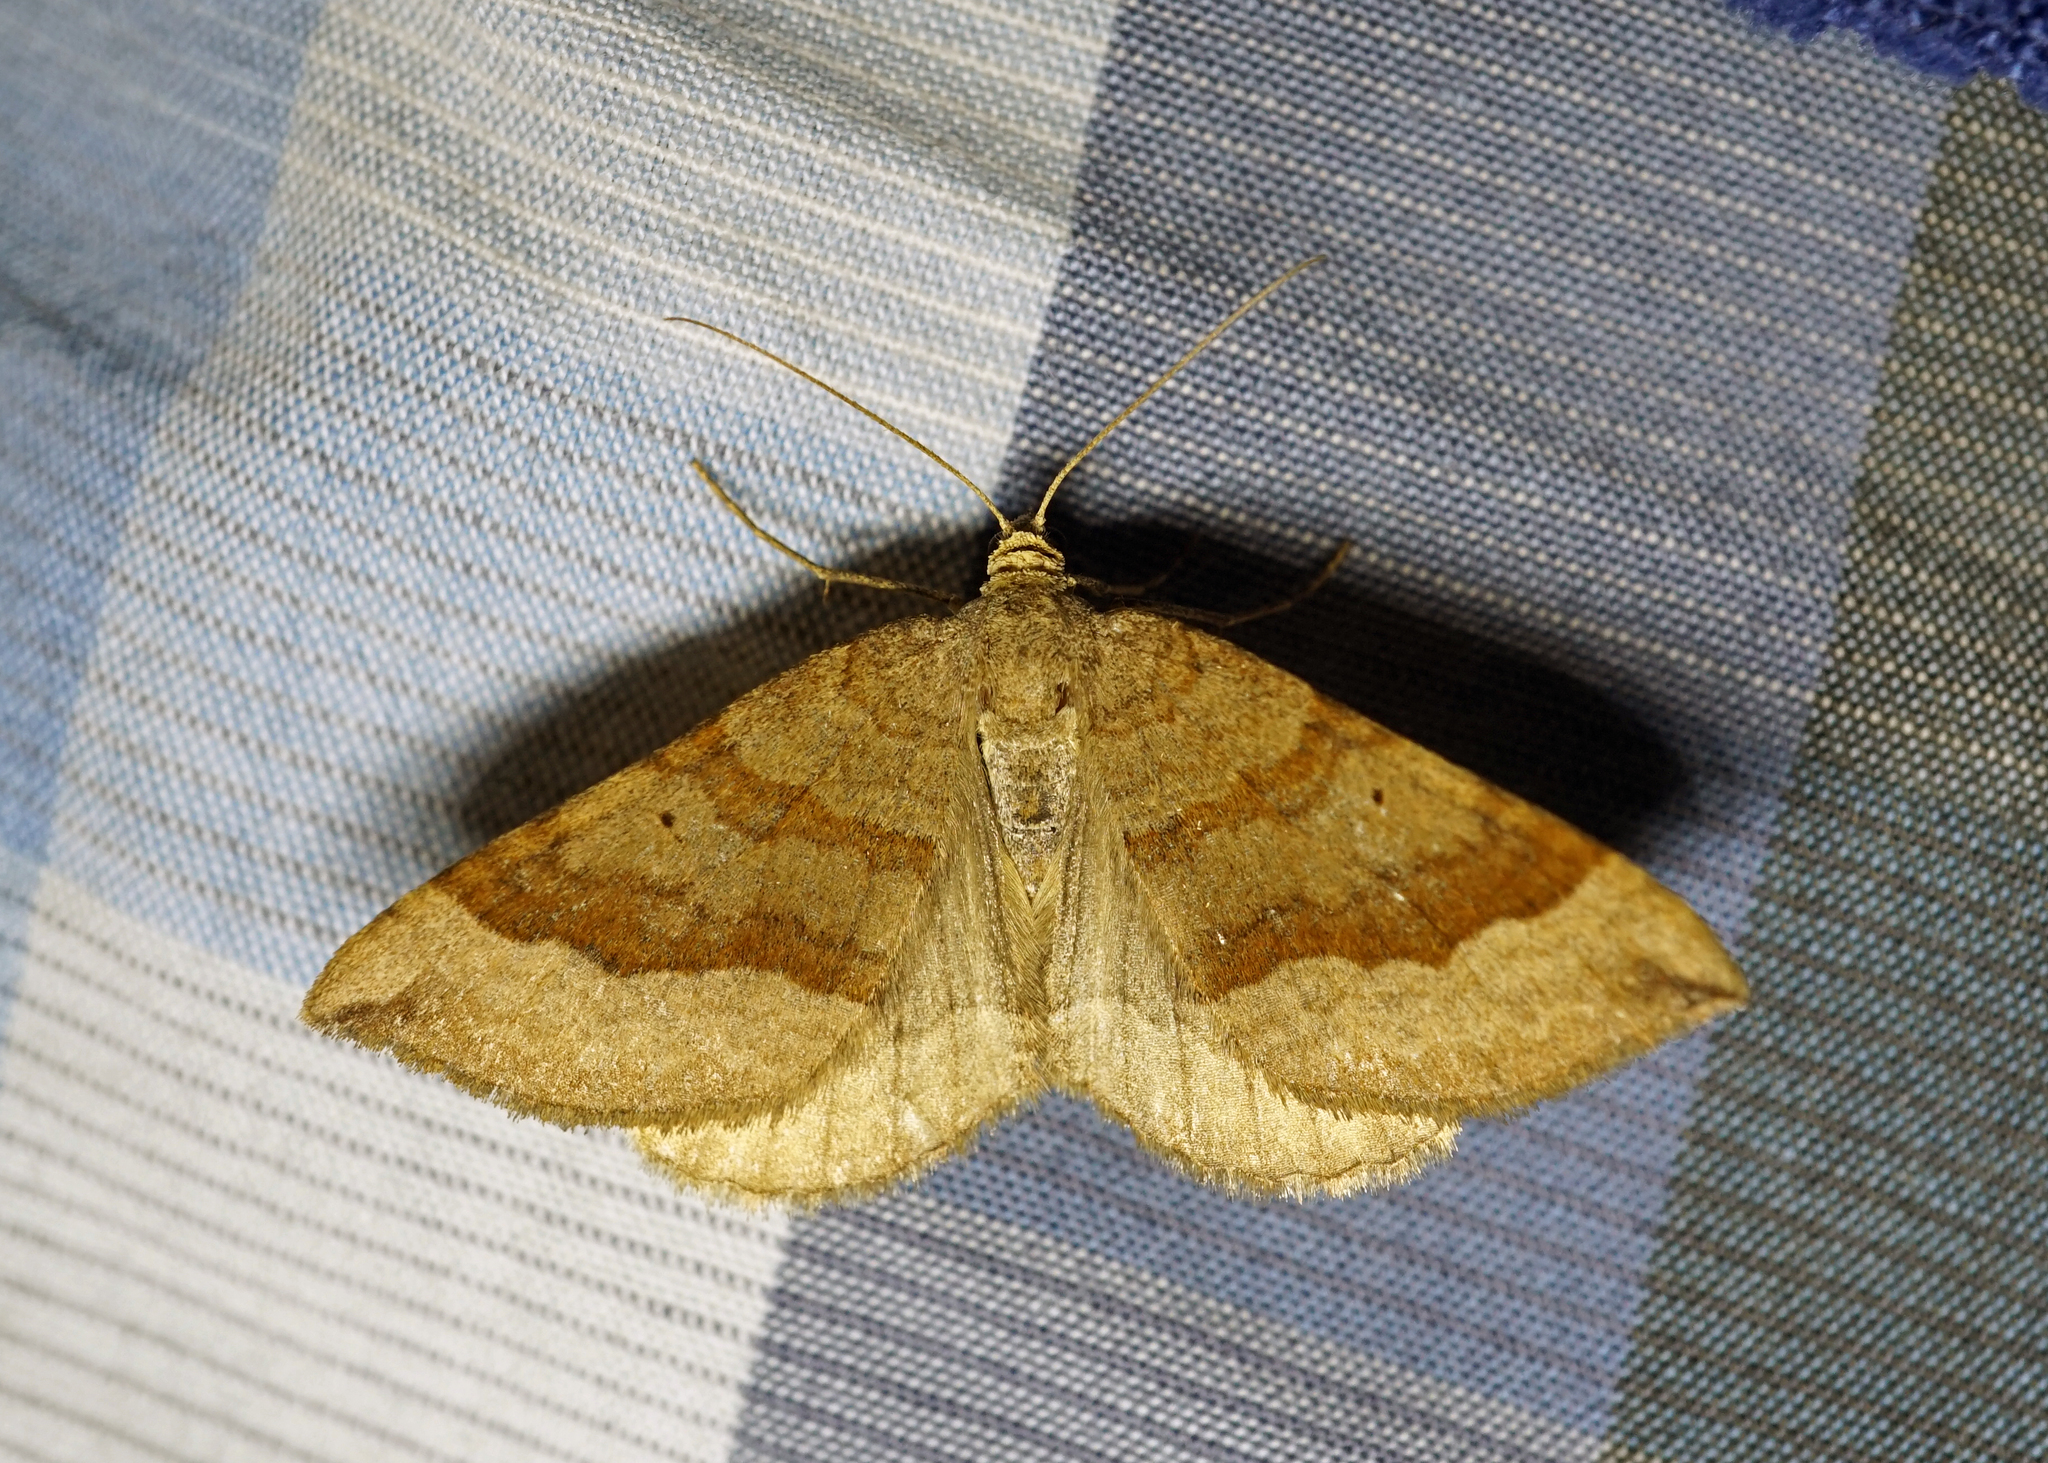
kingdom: Animalia
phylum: Arthropoda
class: Insecta
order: Lepidoptera
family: Geometridae
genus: Scotopteryx
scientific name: Scotopteryx chenopodiata
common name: Shaded broad-bar
